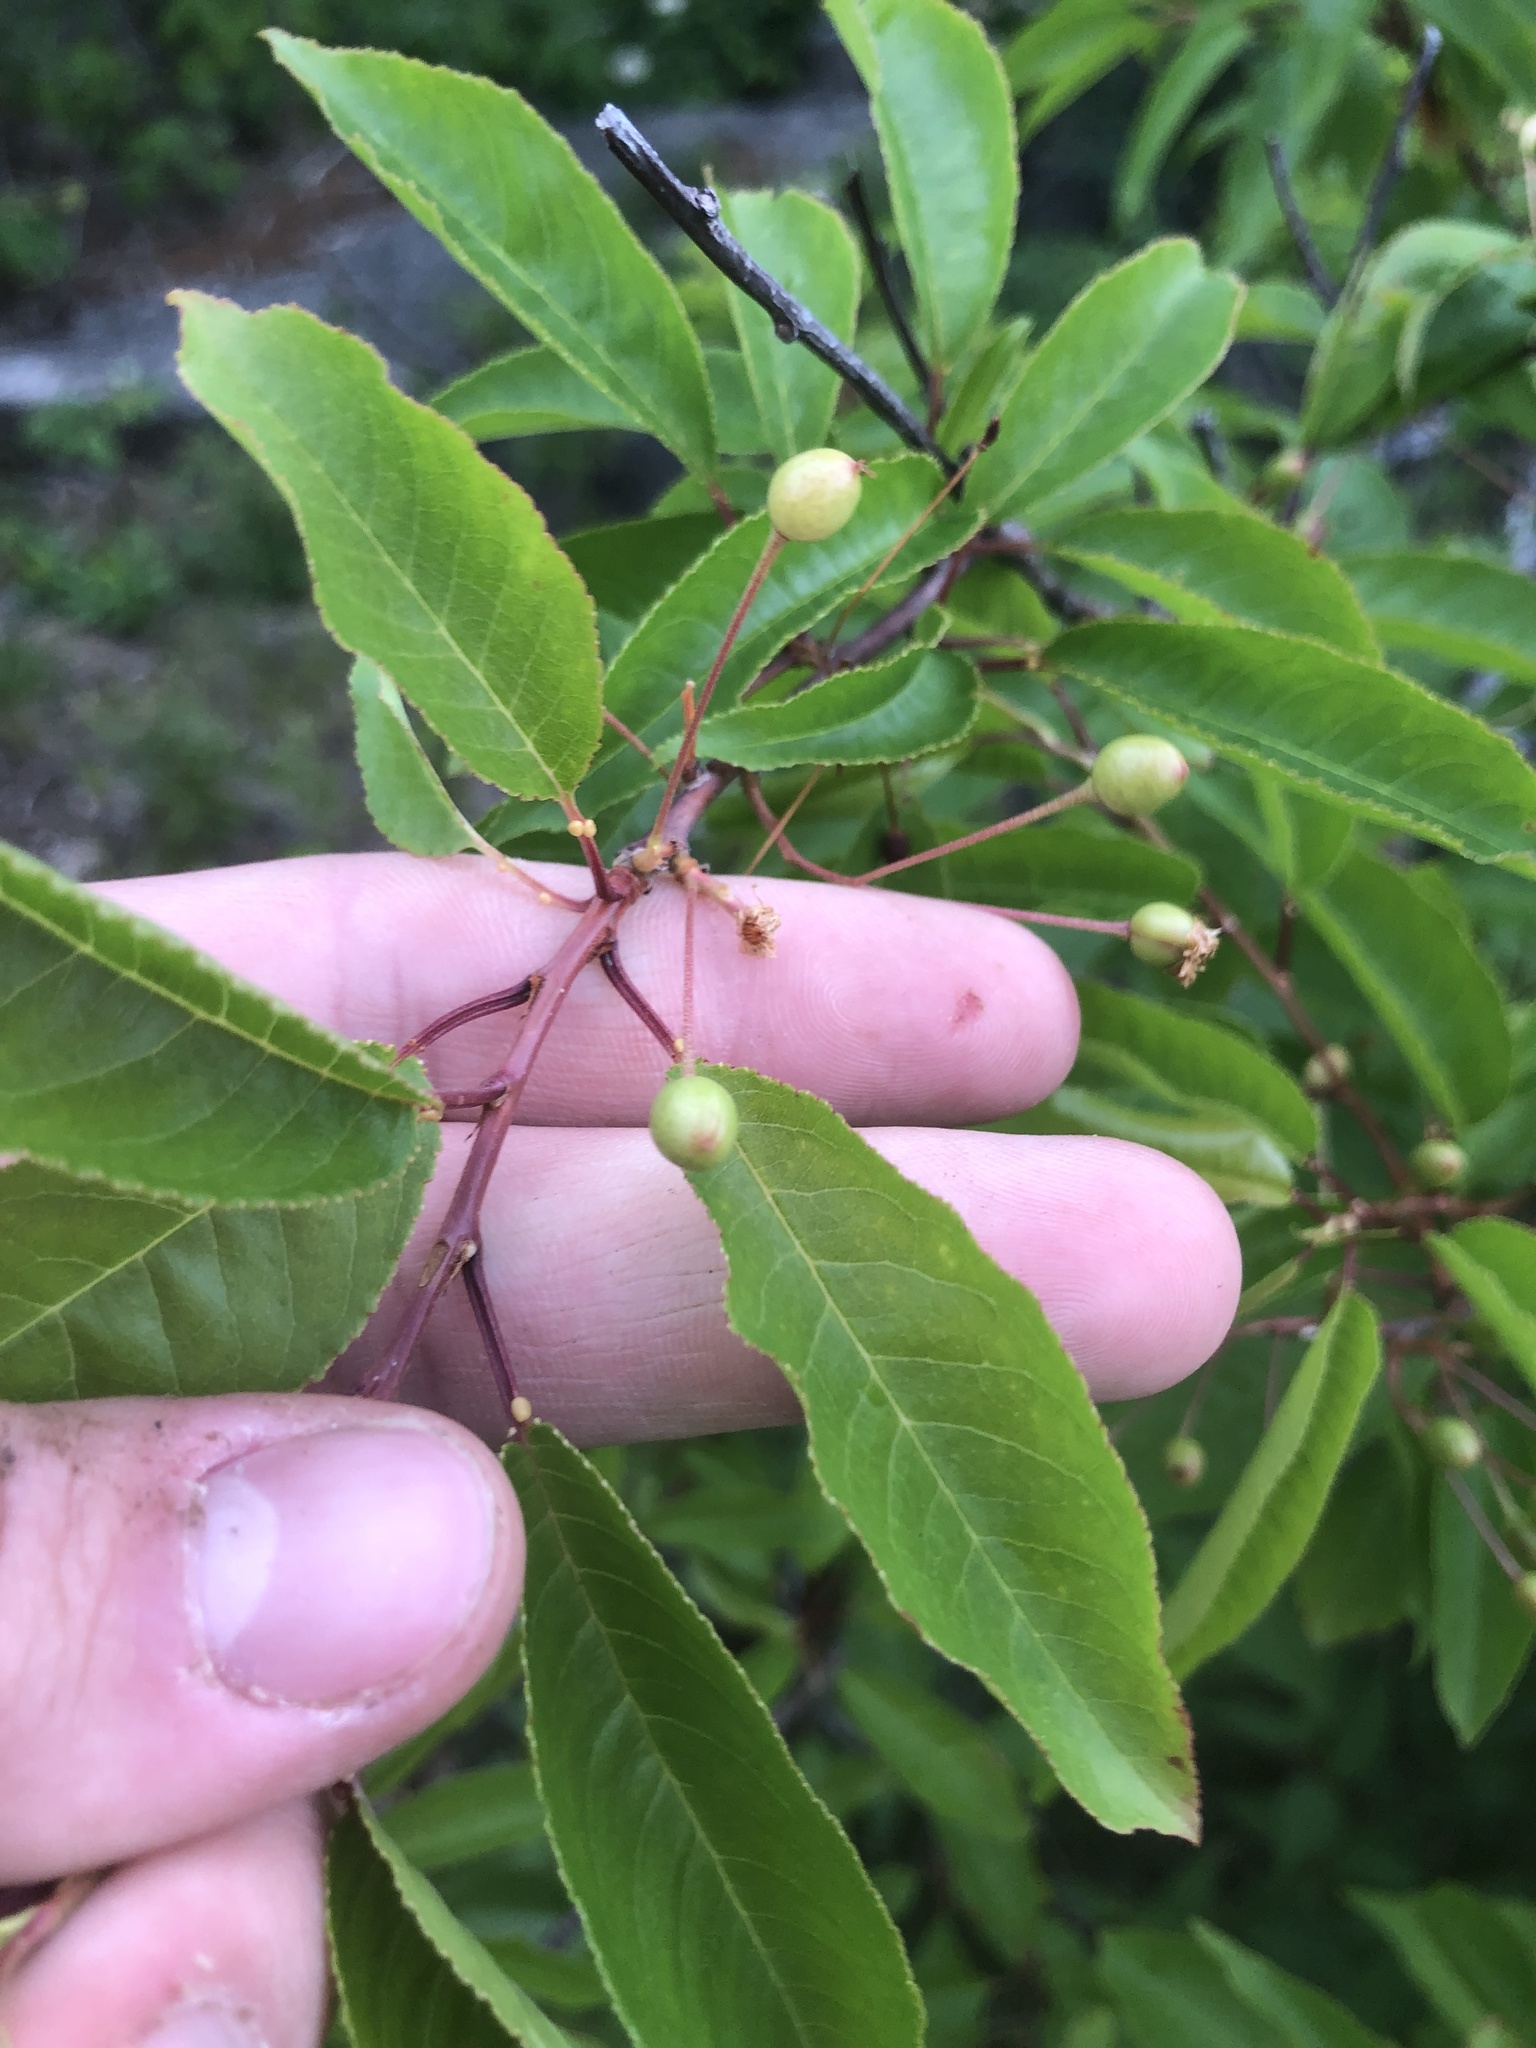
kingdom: Plantae
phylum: Tracheophyta
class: Magnoliopsida
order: Rosales
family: Rosaceae
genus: Prunus
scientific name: Prunus pensylvanica
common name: Pin cherry
